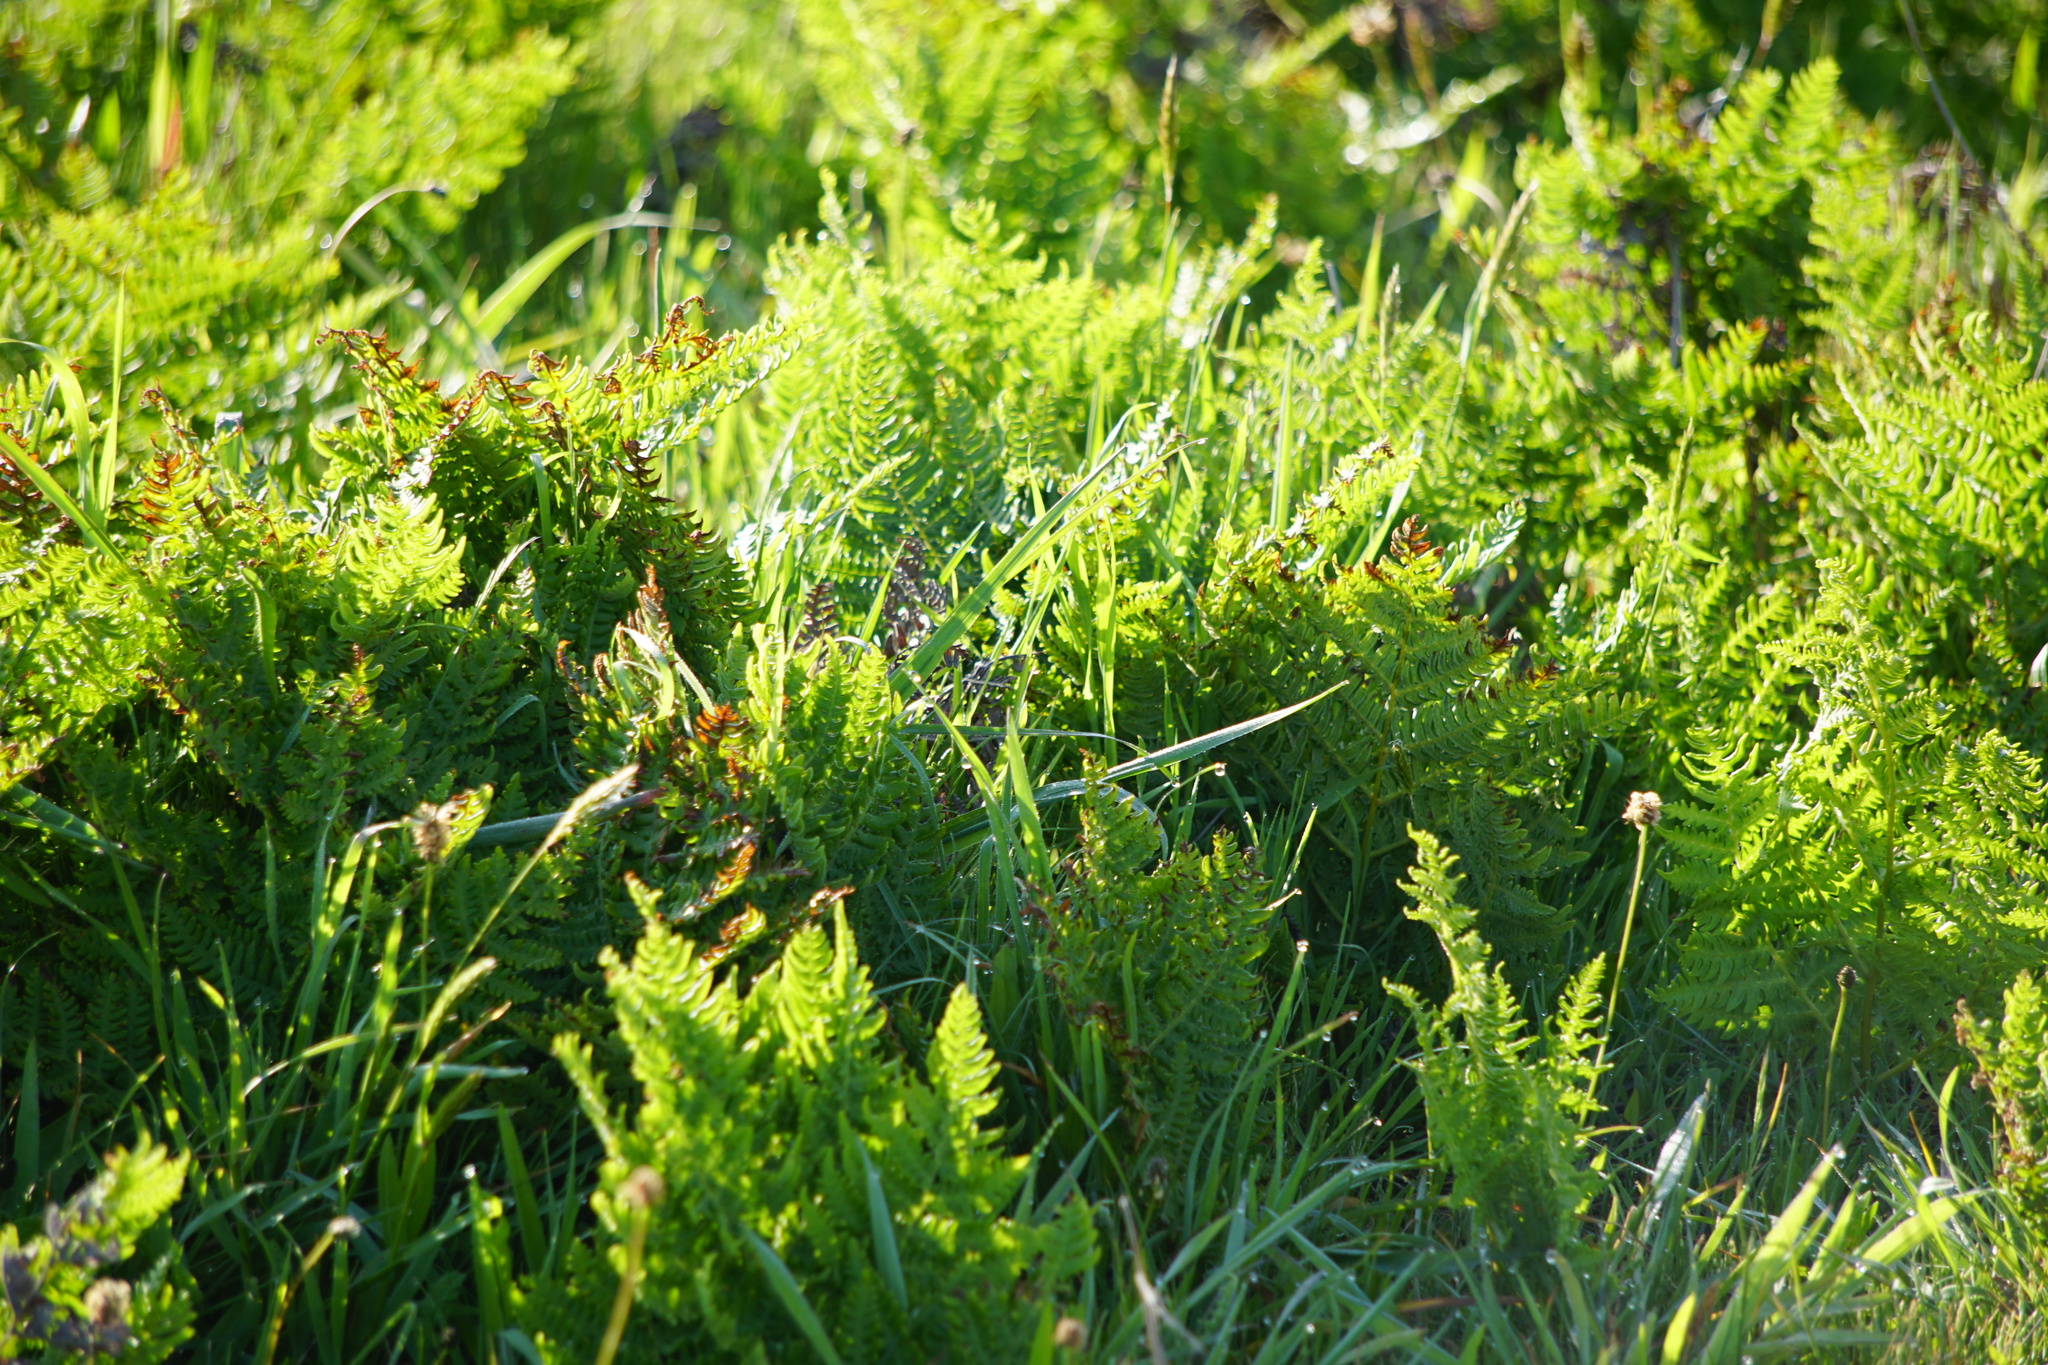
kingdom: Plantae
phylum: Tracheophyta
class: Polypodiopsida
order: Polypodiales
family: Dennstaedtiaceae
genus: Pteridium
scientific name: Pteridium aquilinum
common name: Bracken
